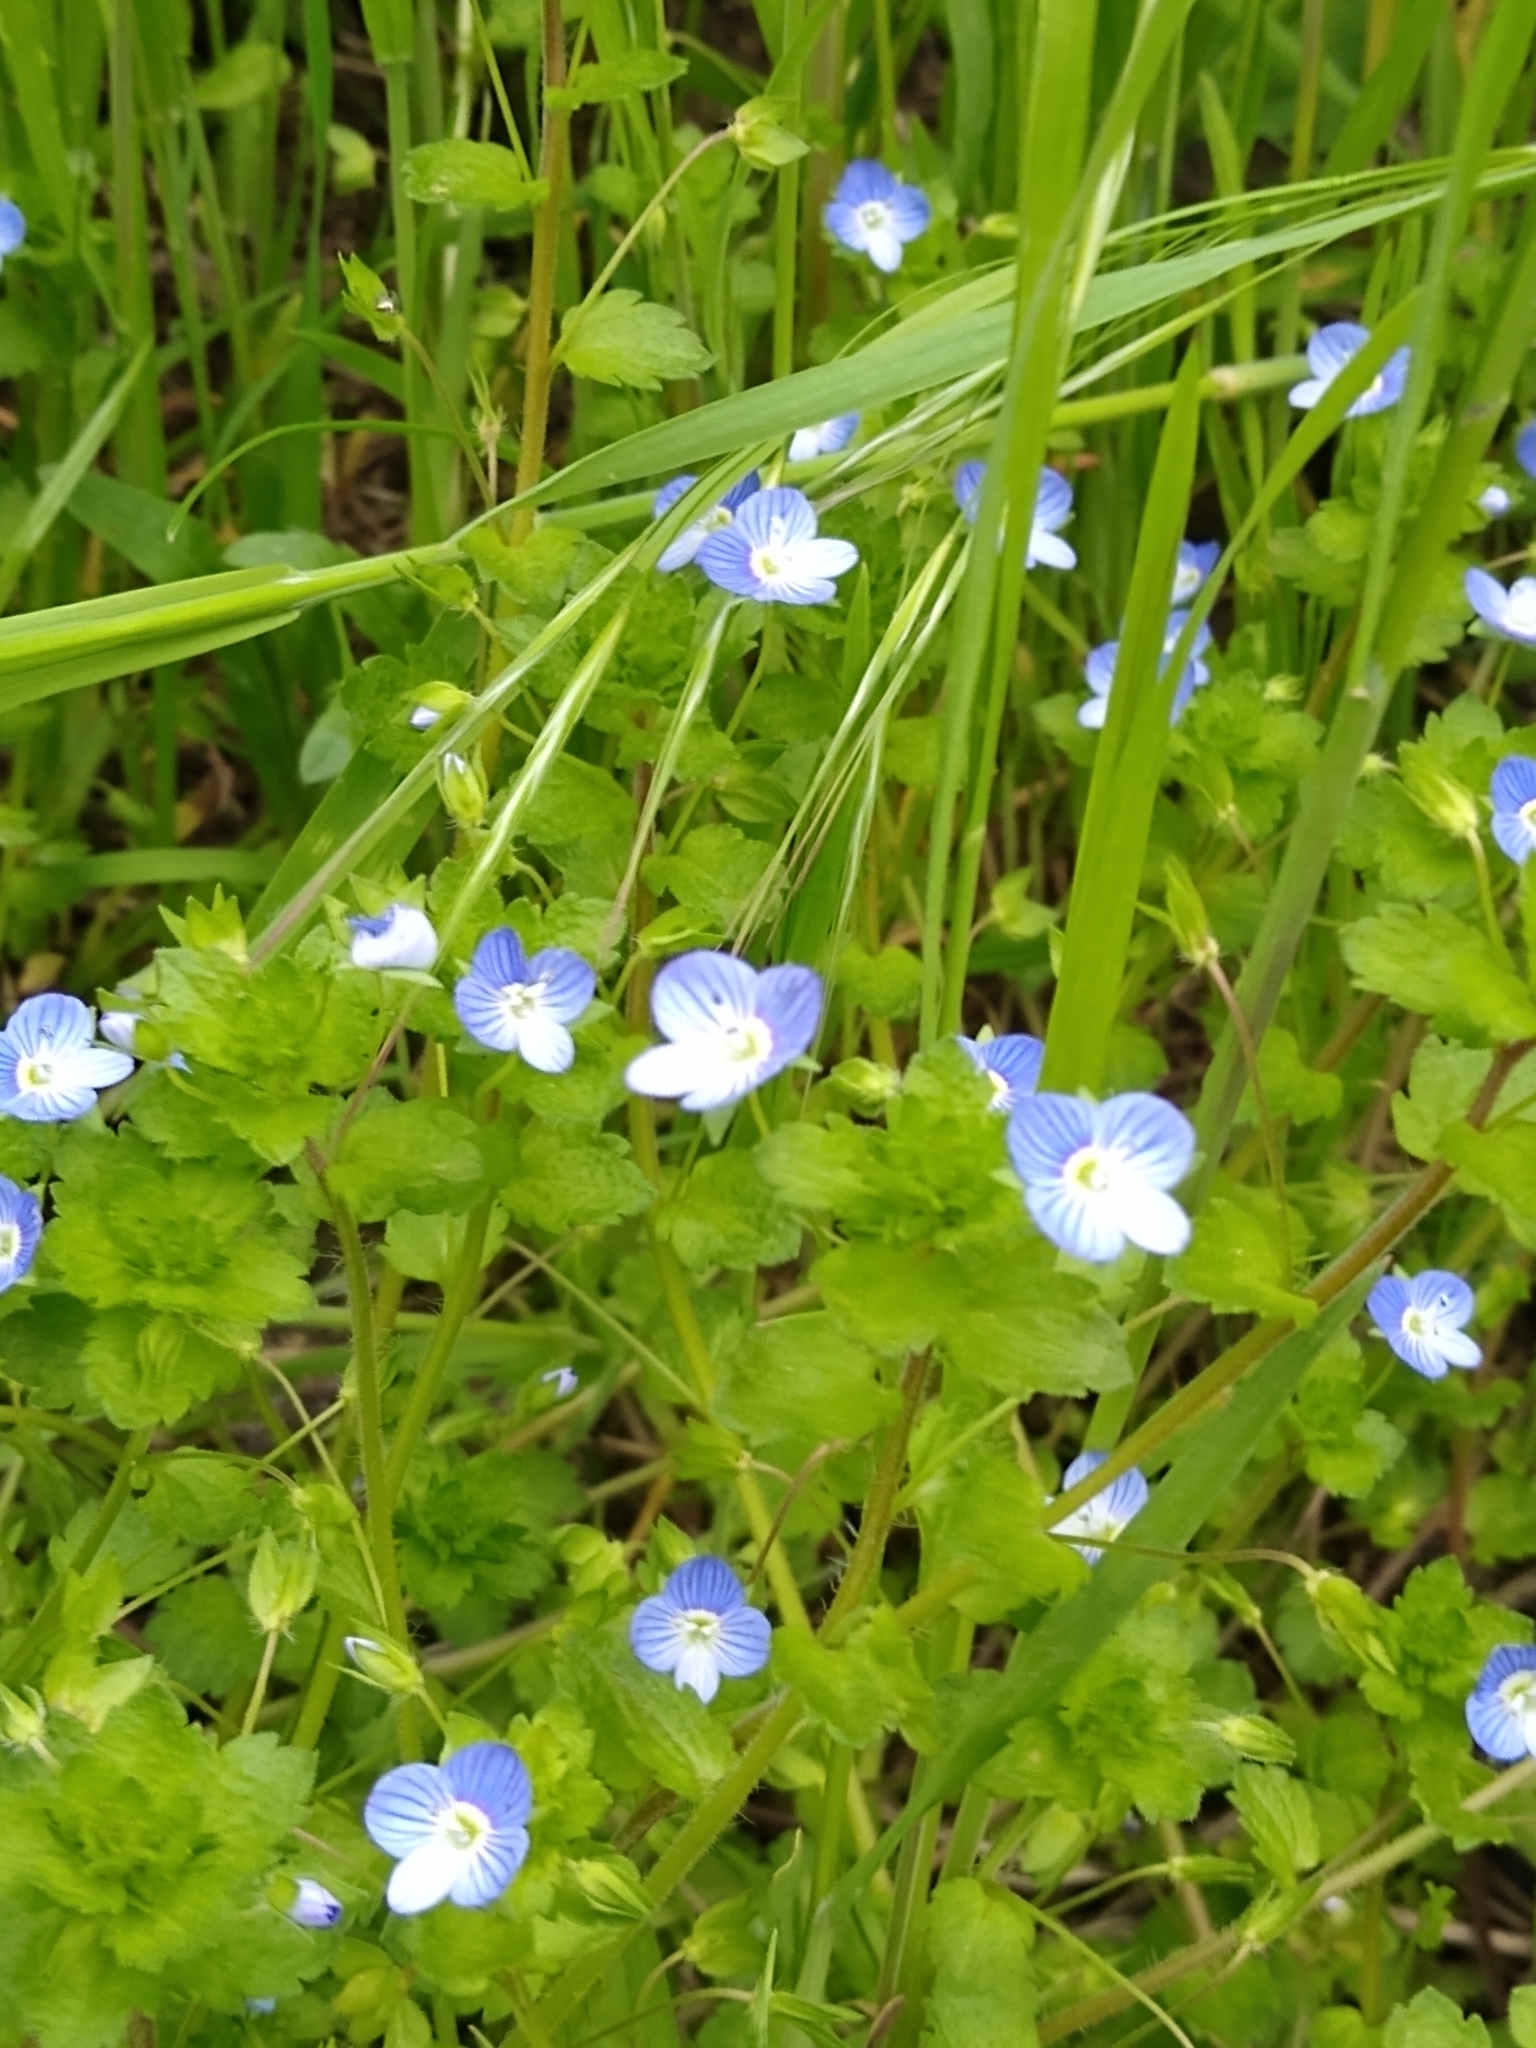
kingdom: Plantae
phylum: Tracheophyta
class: Magnoliopsida
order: Lamiales
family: Plantaginaceae
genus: Veronica
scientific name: Veronica persica
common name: Common field-speedwell
